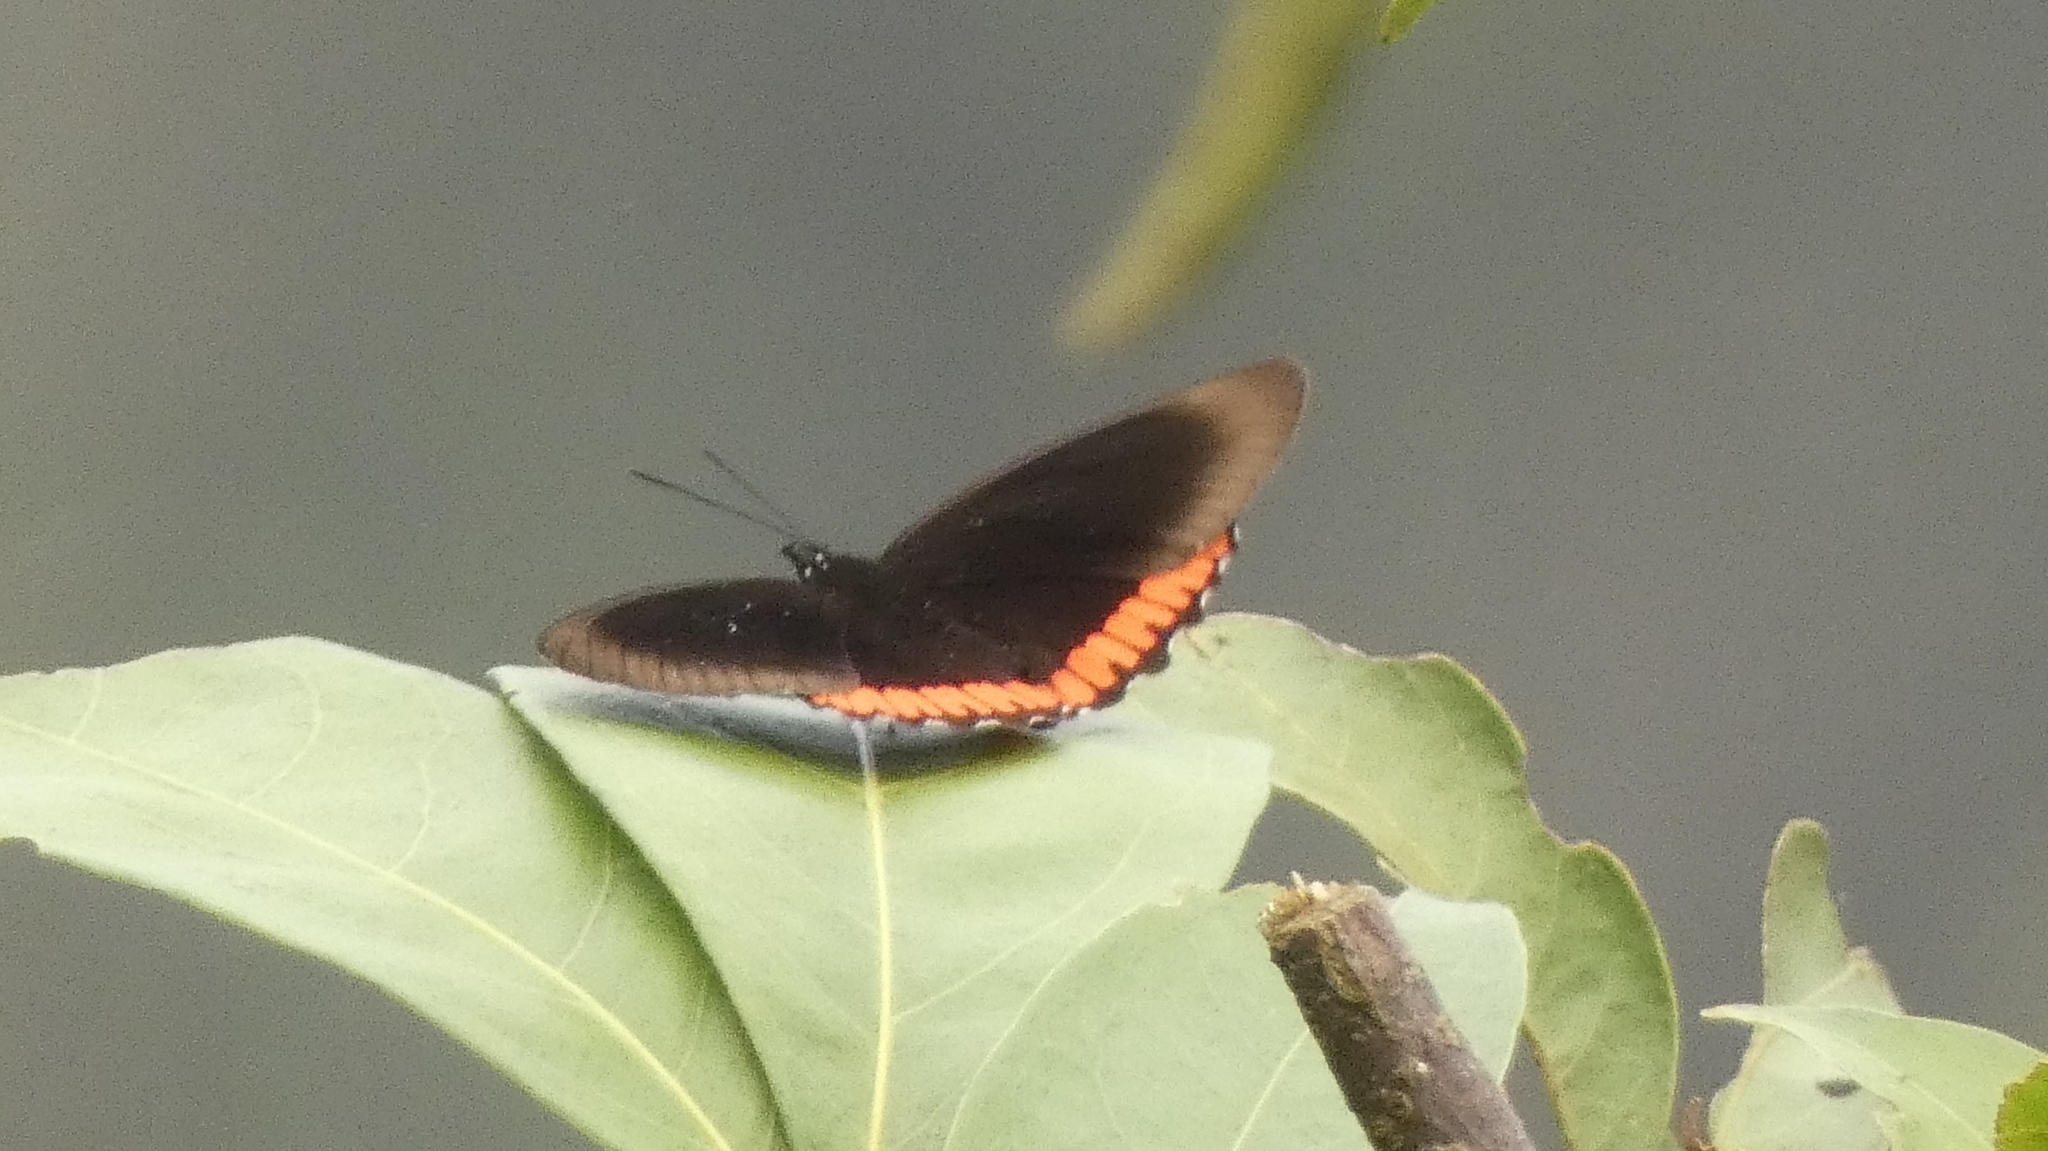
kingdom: Animalia
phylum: Arthropoda
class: Insecta
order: Lepidoptera
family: Sesiidae
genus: Sesia
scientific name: Sesia Biblis hyperia
